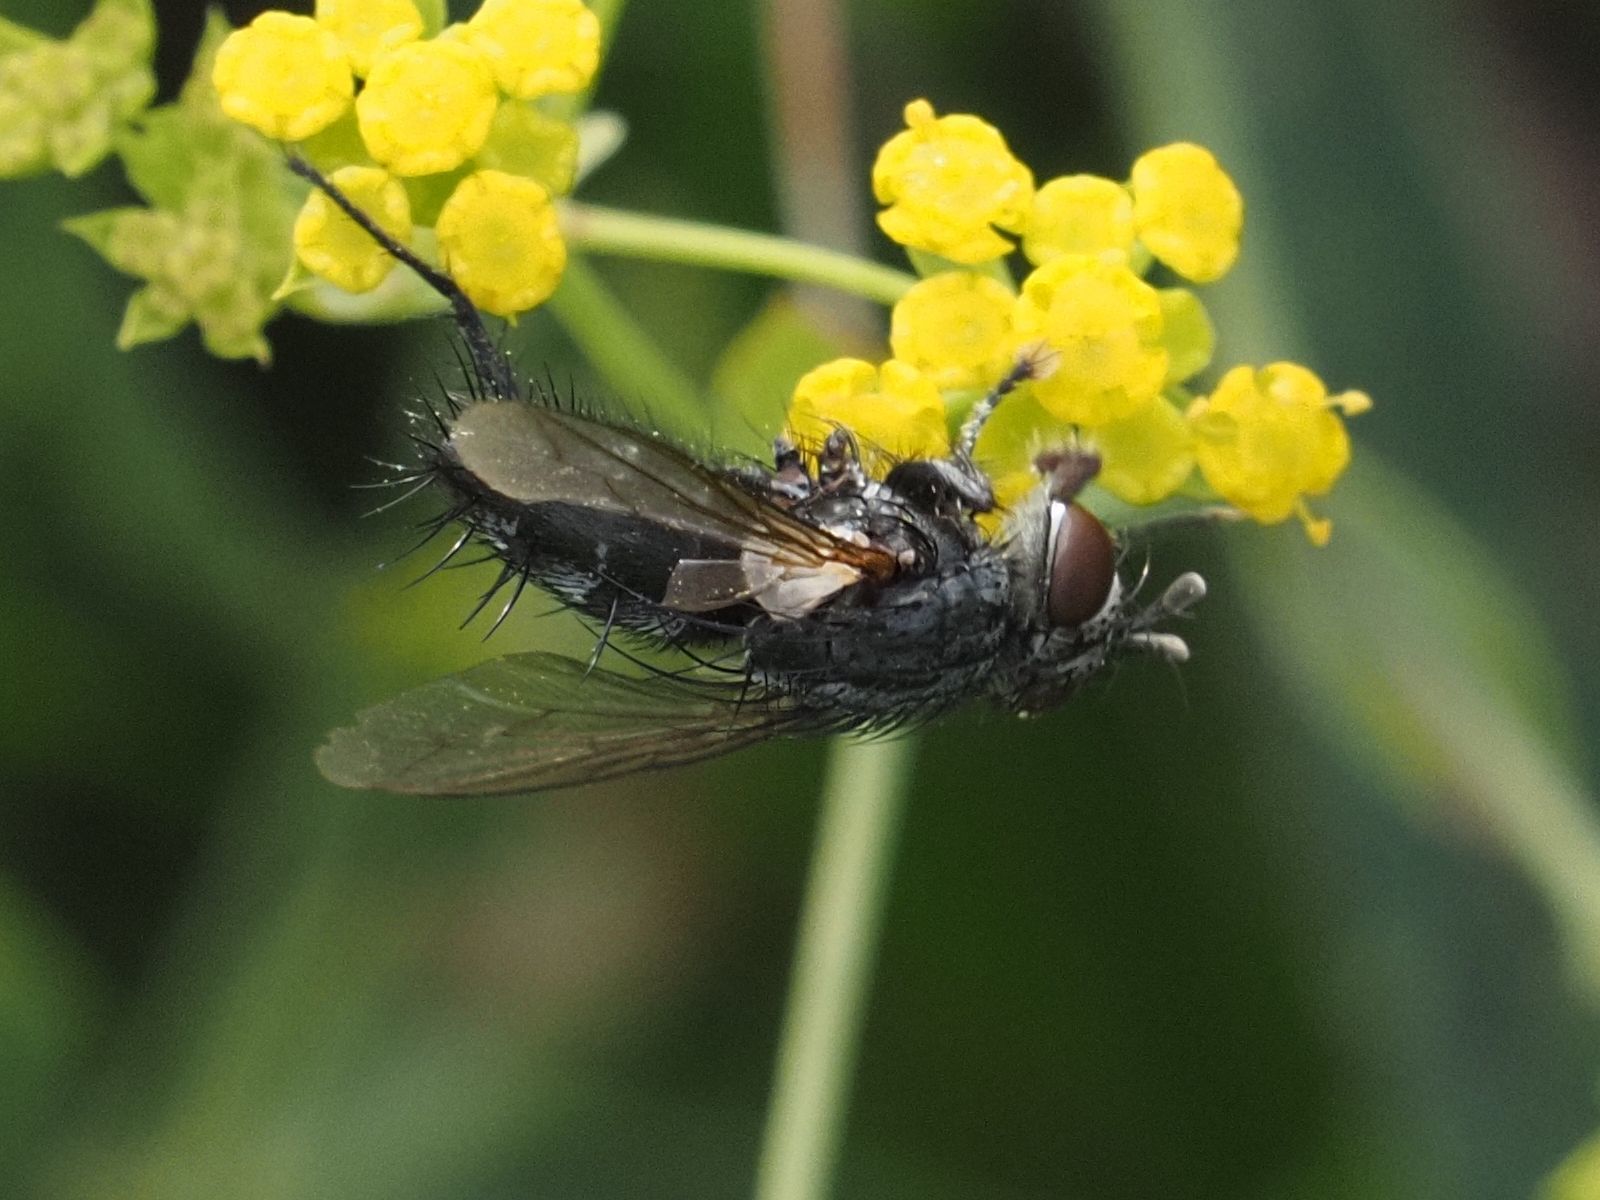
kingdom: Animalia
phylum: Arthropoda
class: Insecta
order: Diptera
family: Tachinidae
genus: Voria
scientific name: Voria ruralis
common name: Parasitic fly
